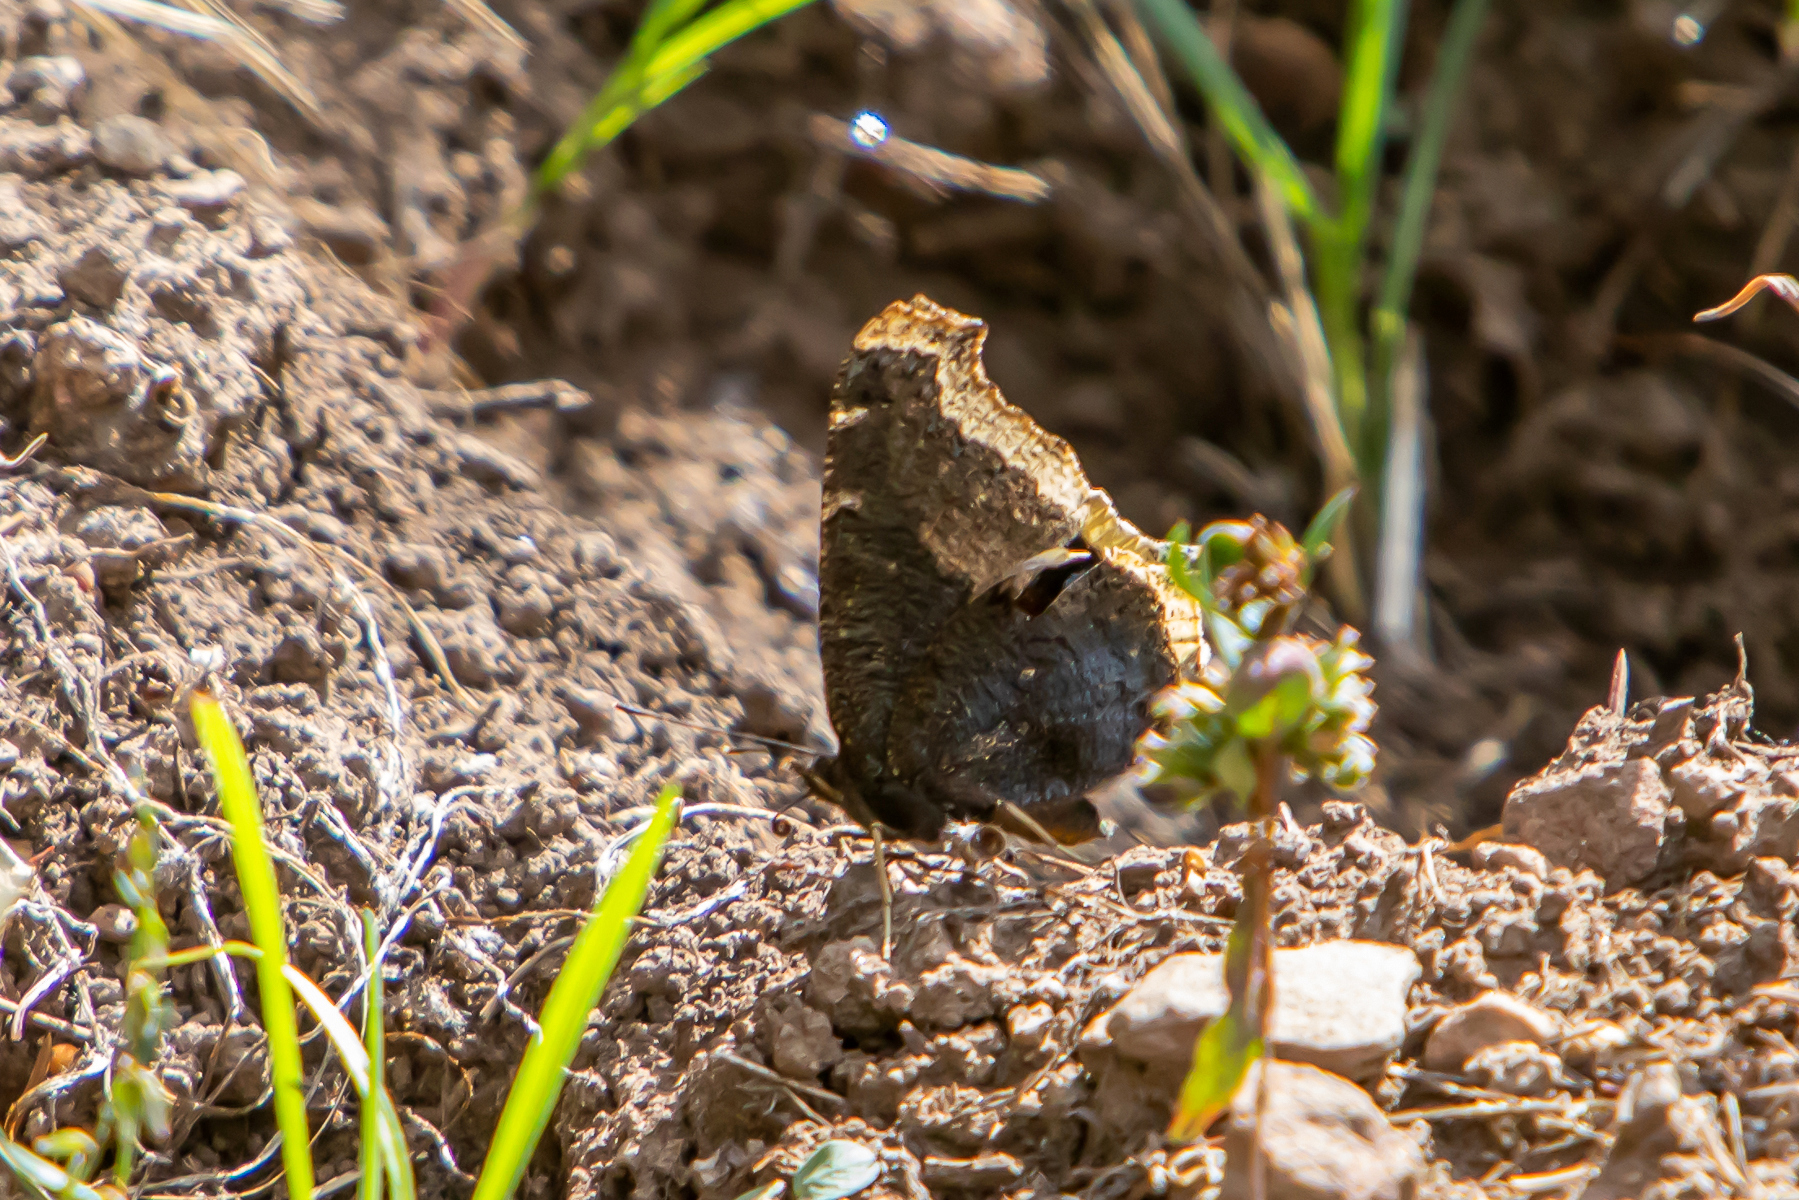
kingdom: Animalia
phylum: Arthropoda
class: Insecta
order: Lepidoptera
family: Nymphalidae
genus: Nymphalis
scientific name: Nymphalis antiopa
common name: Camberwell beauty
